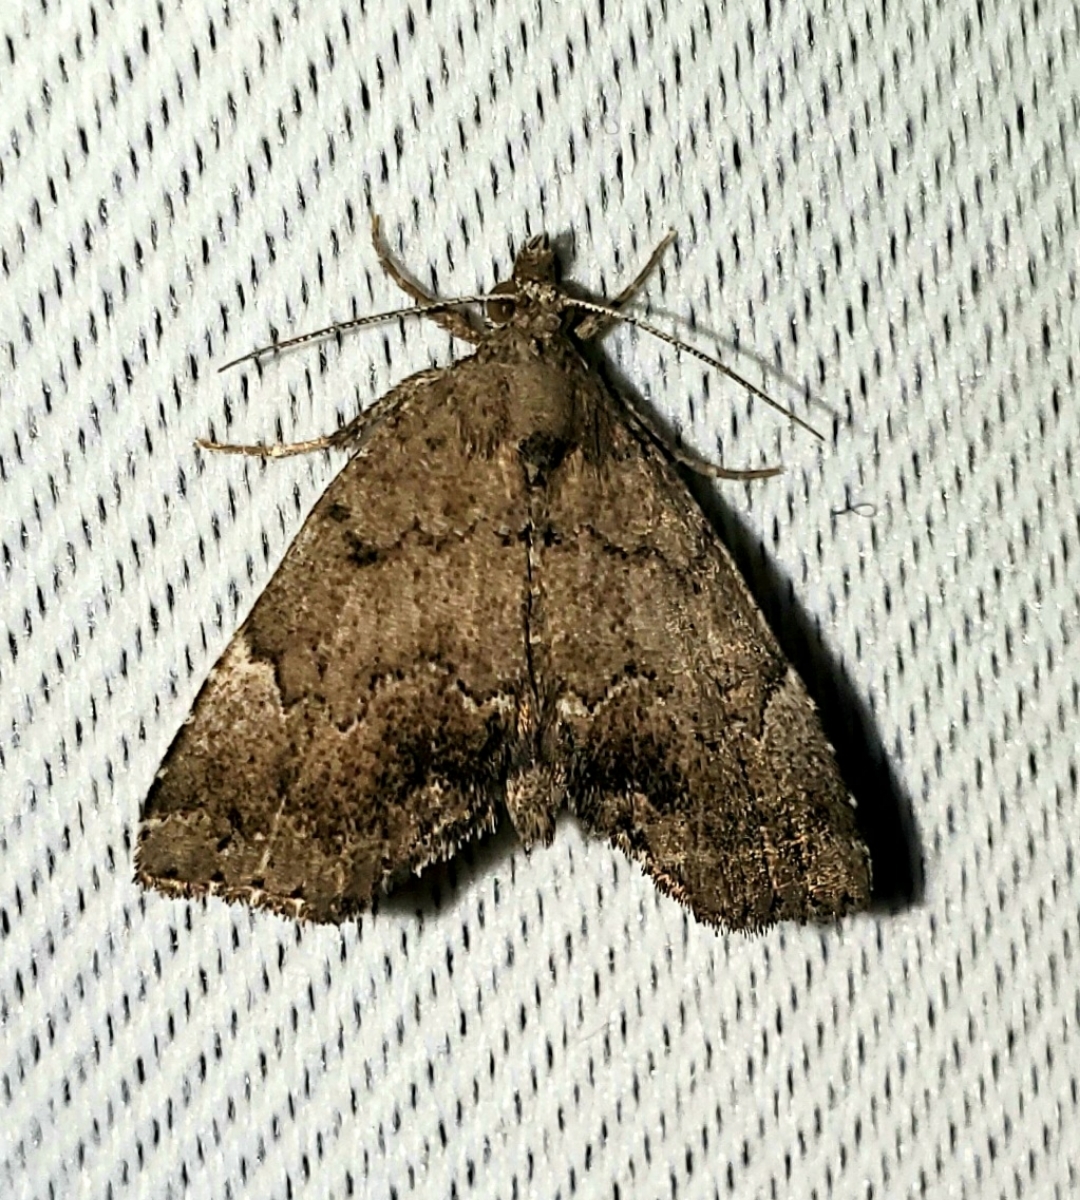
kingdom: Animalia
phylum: Arthropoda
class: Insecta
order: Lepidoptera
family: Erebidae
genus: Cutina
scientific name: Cutina aluticolor
